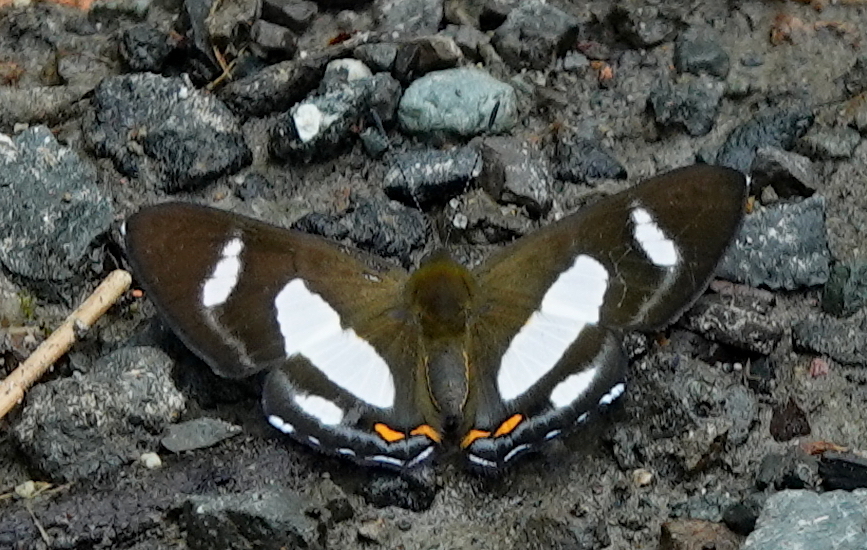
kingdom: Animalia
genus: Siseme
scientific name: Siseme alectryo
